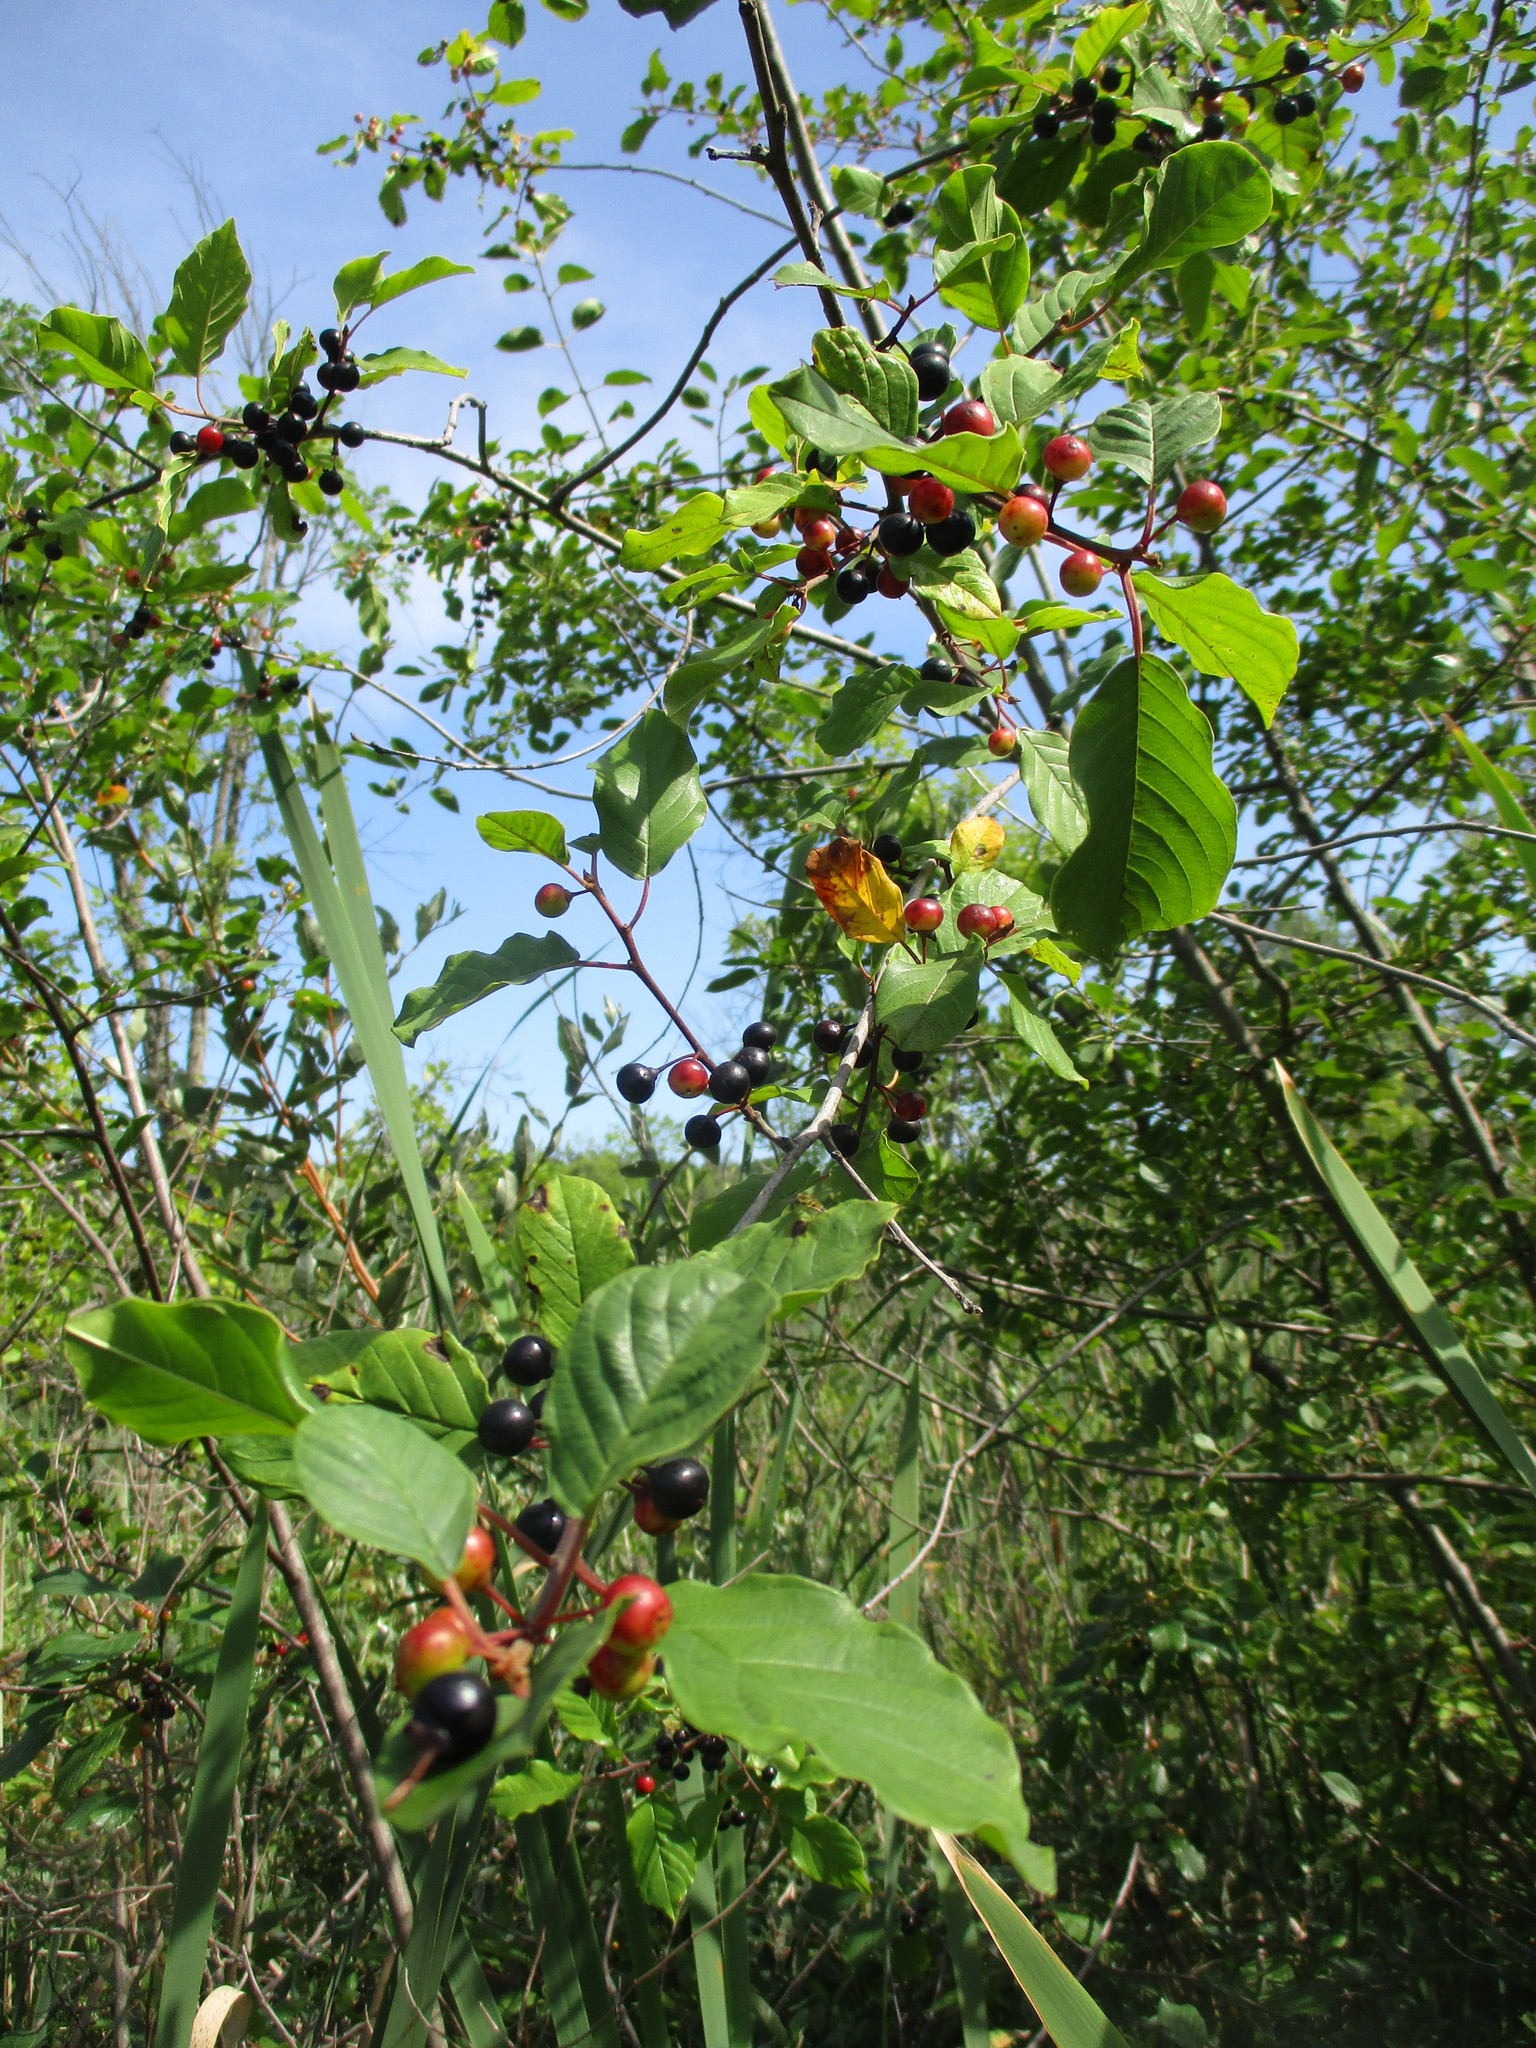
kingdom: Plantae
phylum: Tracheophyta
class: Magnoliopsida
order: Rosales
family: Rhamnaceae
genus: Frangula
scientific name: Frangula alnus
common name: Alder buckthorn
